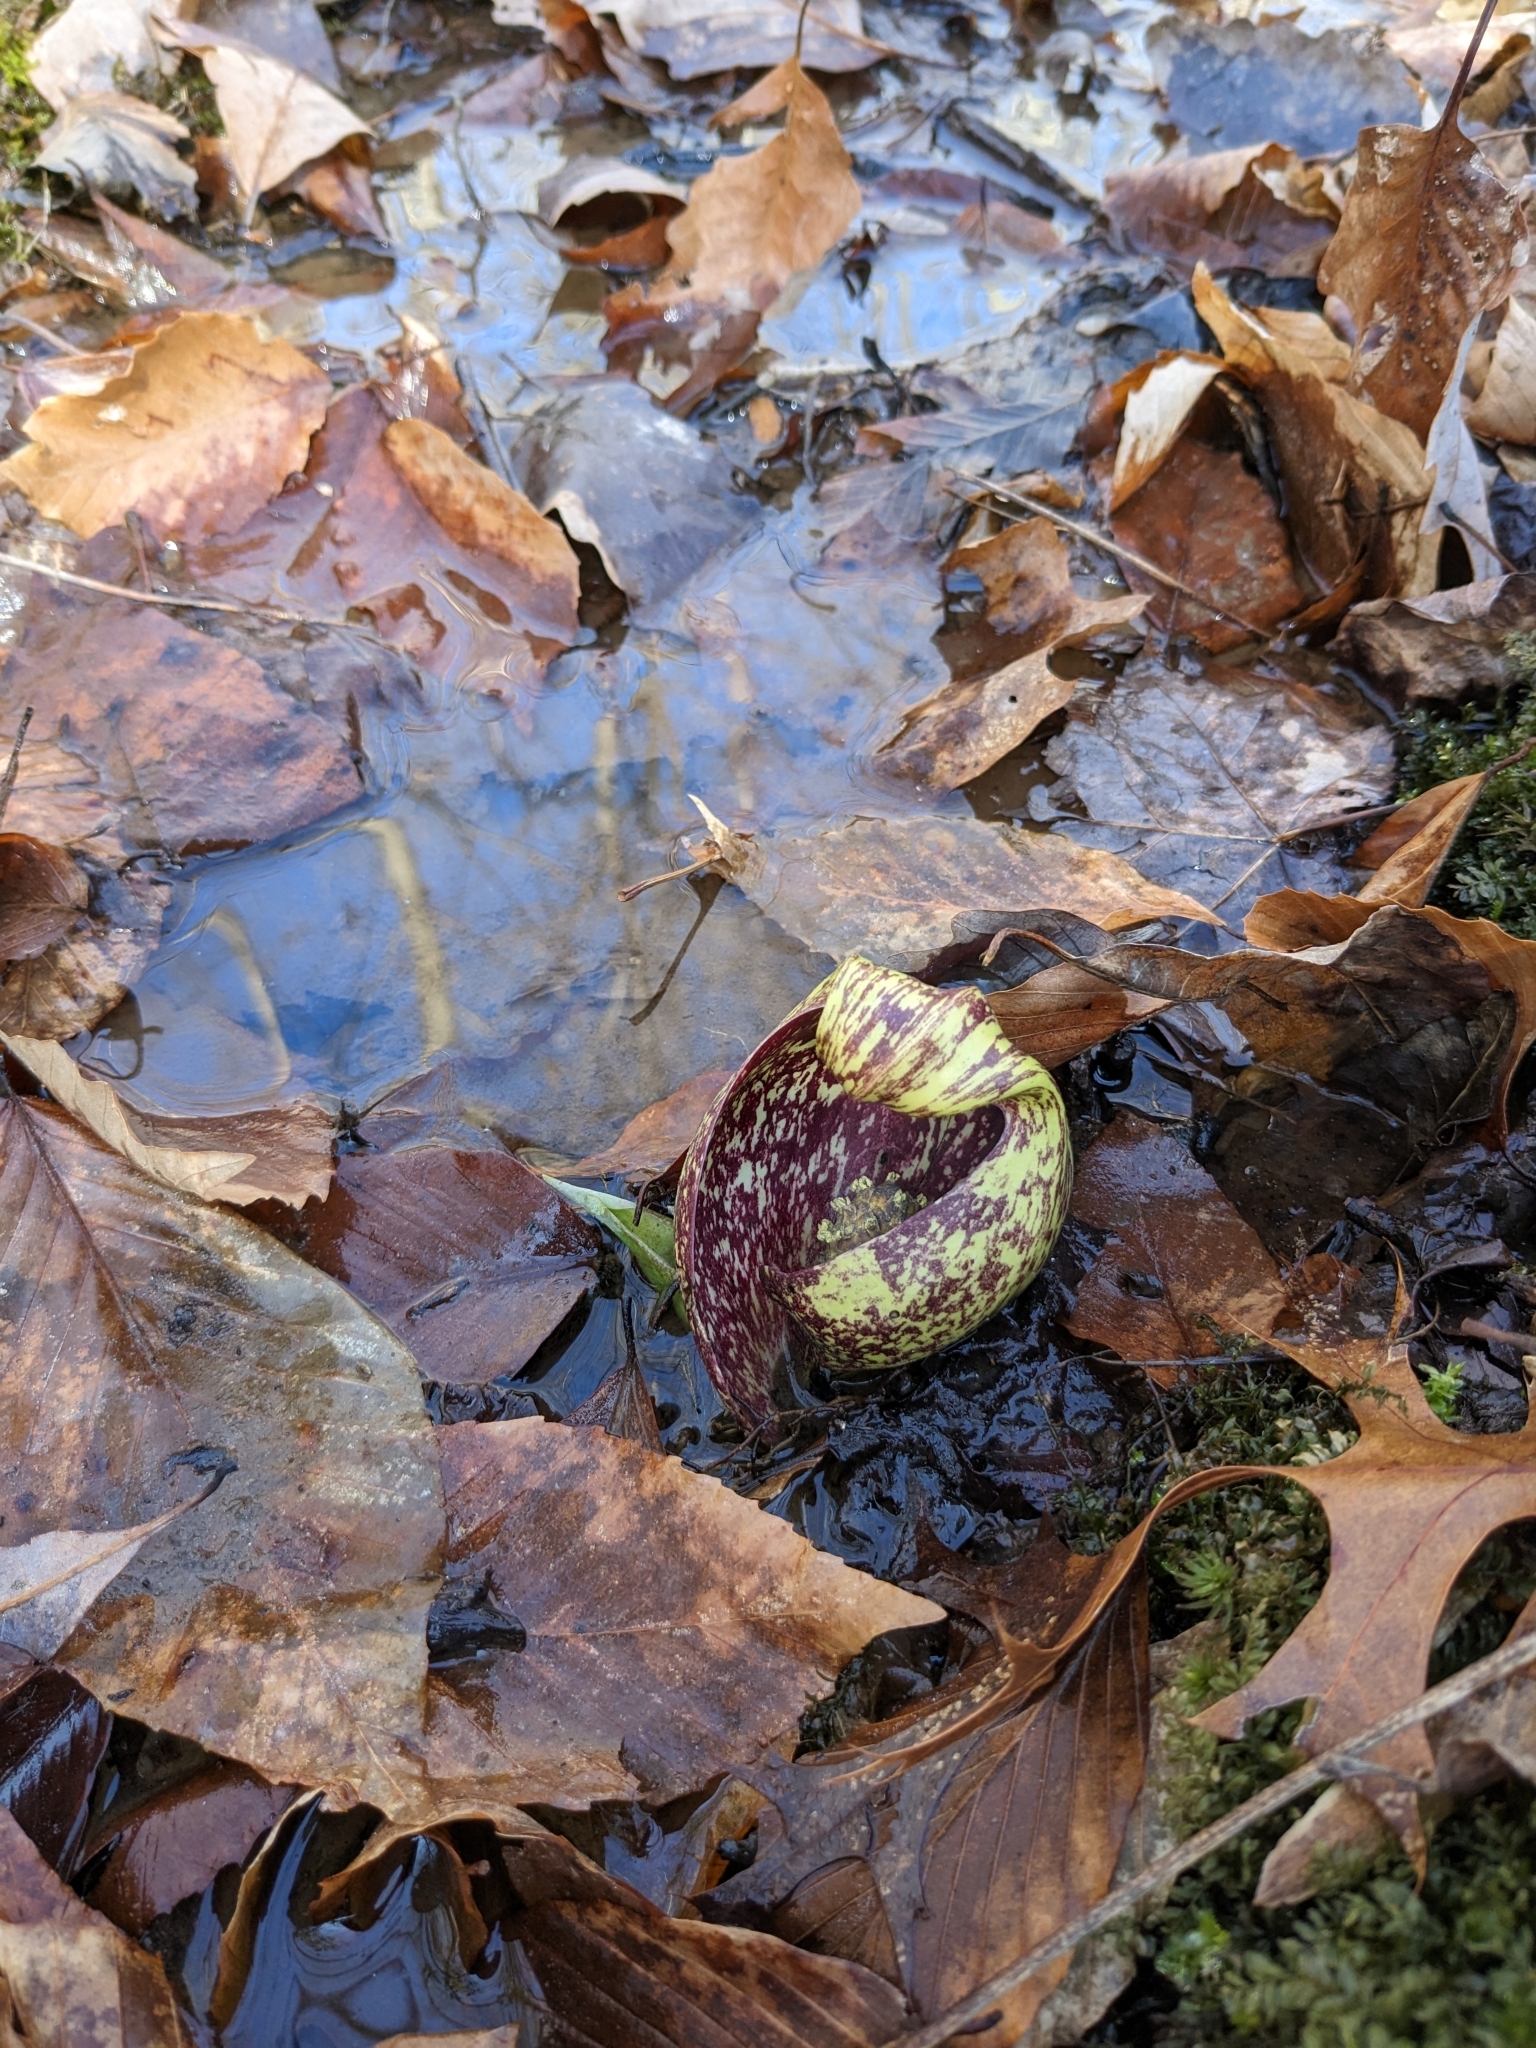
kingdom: Plantae
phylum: Tracheophyta
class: Liliopsida
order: Alismatales
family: Araceae
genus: Symplocarpus
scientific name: Symplocarpus foetidus
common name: Eastern skunk cabbage
